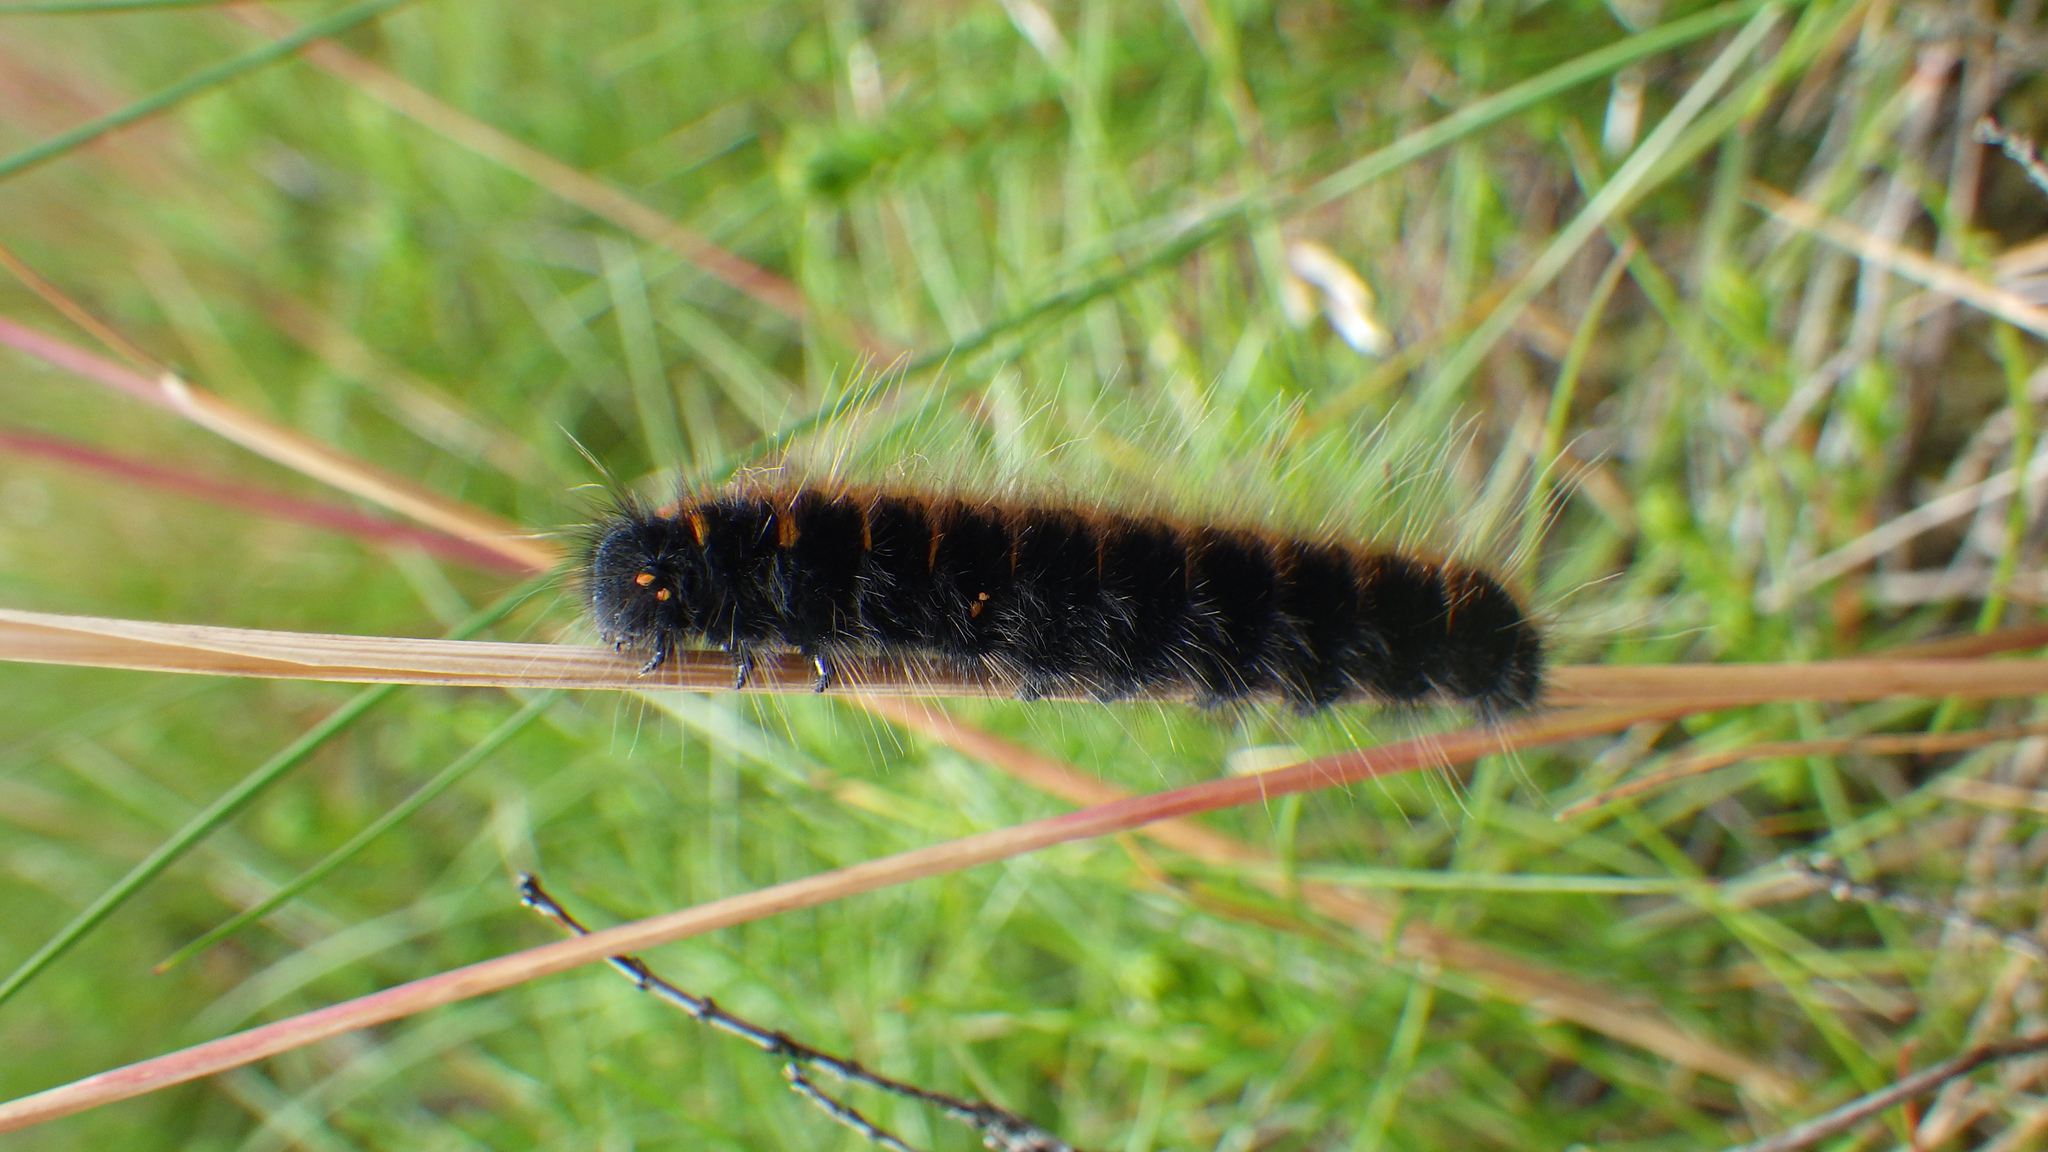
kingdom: Animalia
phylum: Arthropoda
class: Insecta
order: Lepidoptera
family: Lasiocampidae
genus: Macrothylacia
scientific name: Macrothylacia rubi
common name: Fox moth
